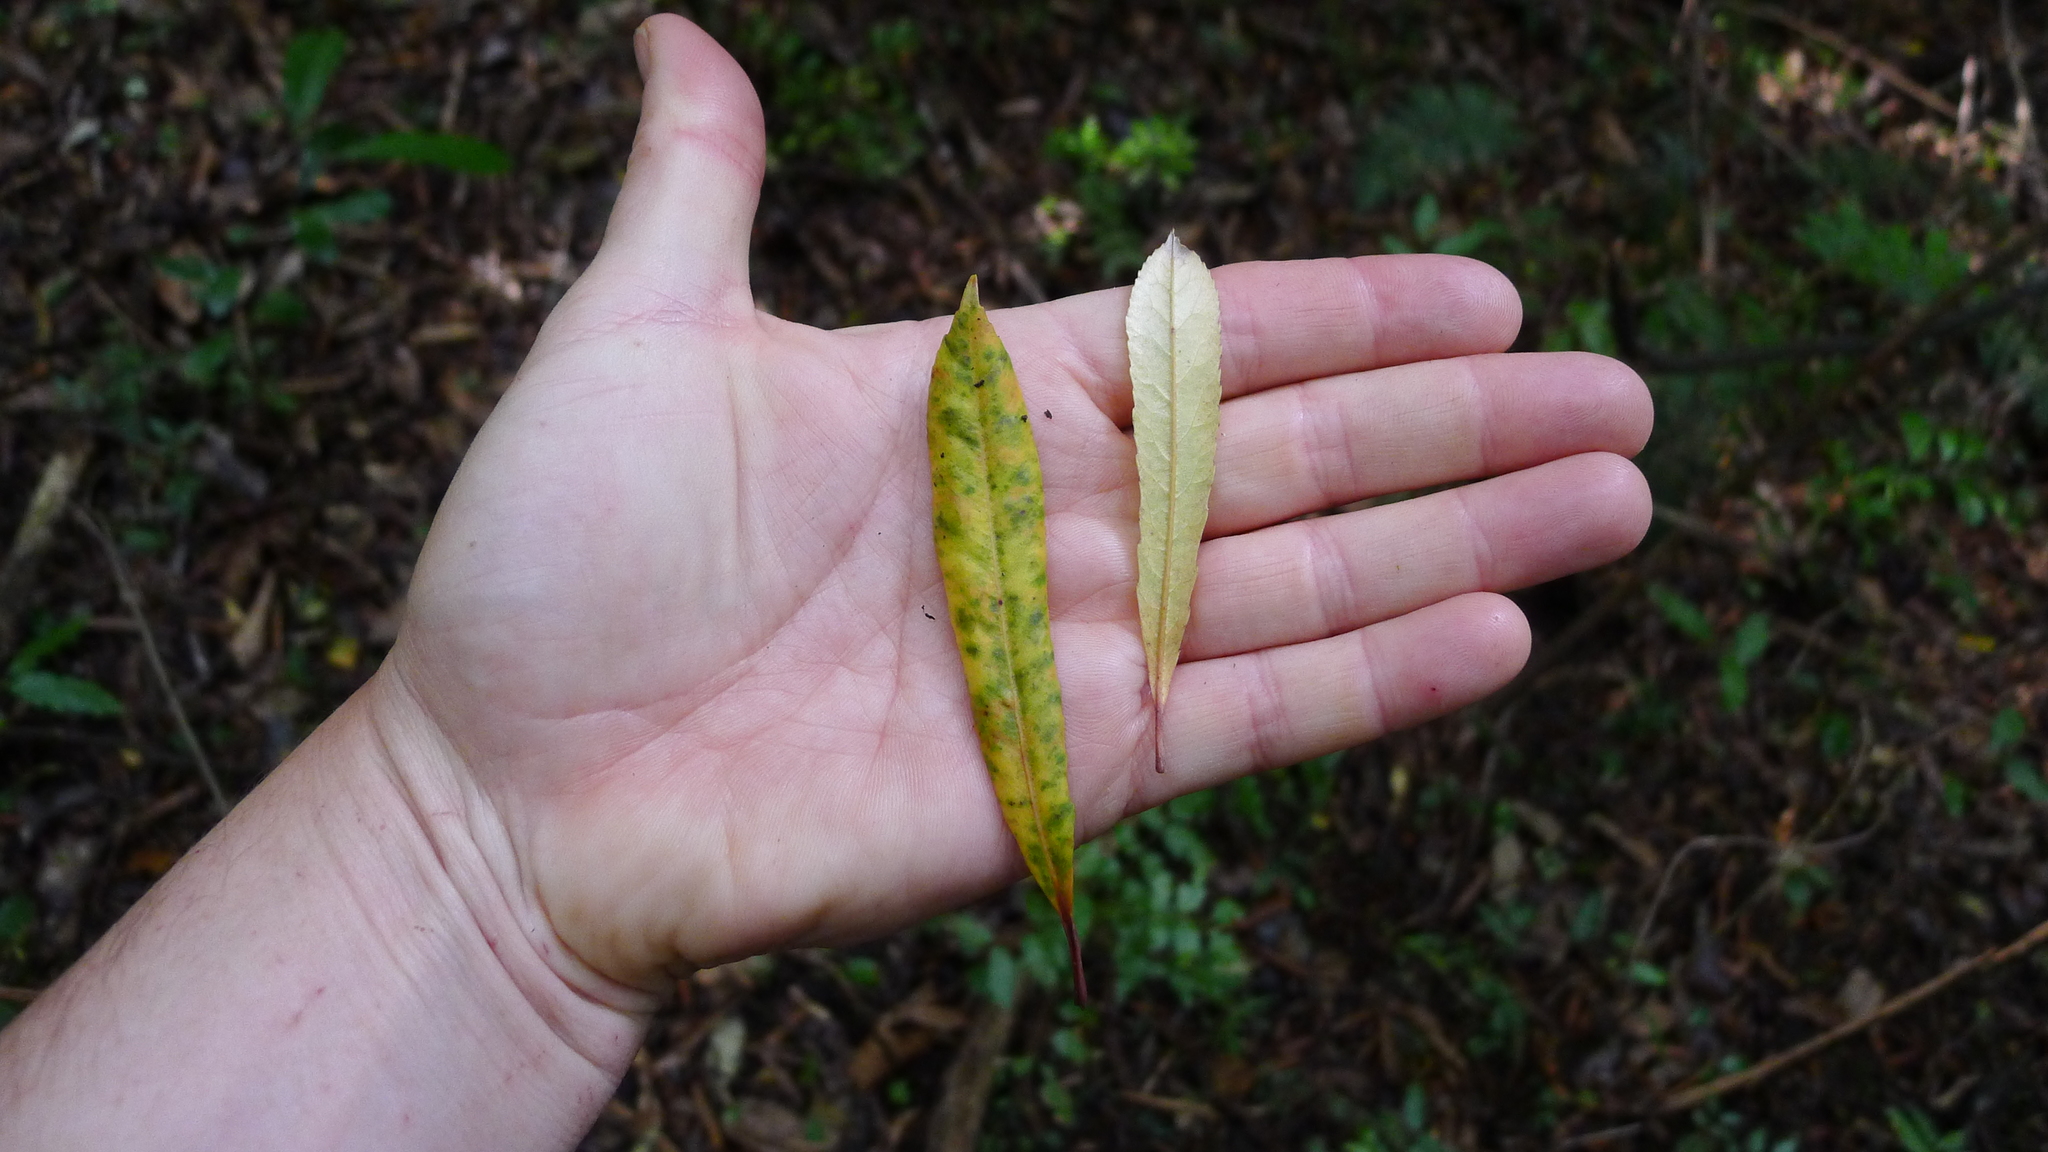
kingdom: Plantae
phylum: Tracheophyta
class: Magnoliopsida
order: Oxalidales
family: Elaeocarpaceae
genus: Elaeocarpus
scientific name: Elaeocarpus dentatus
